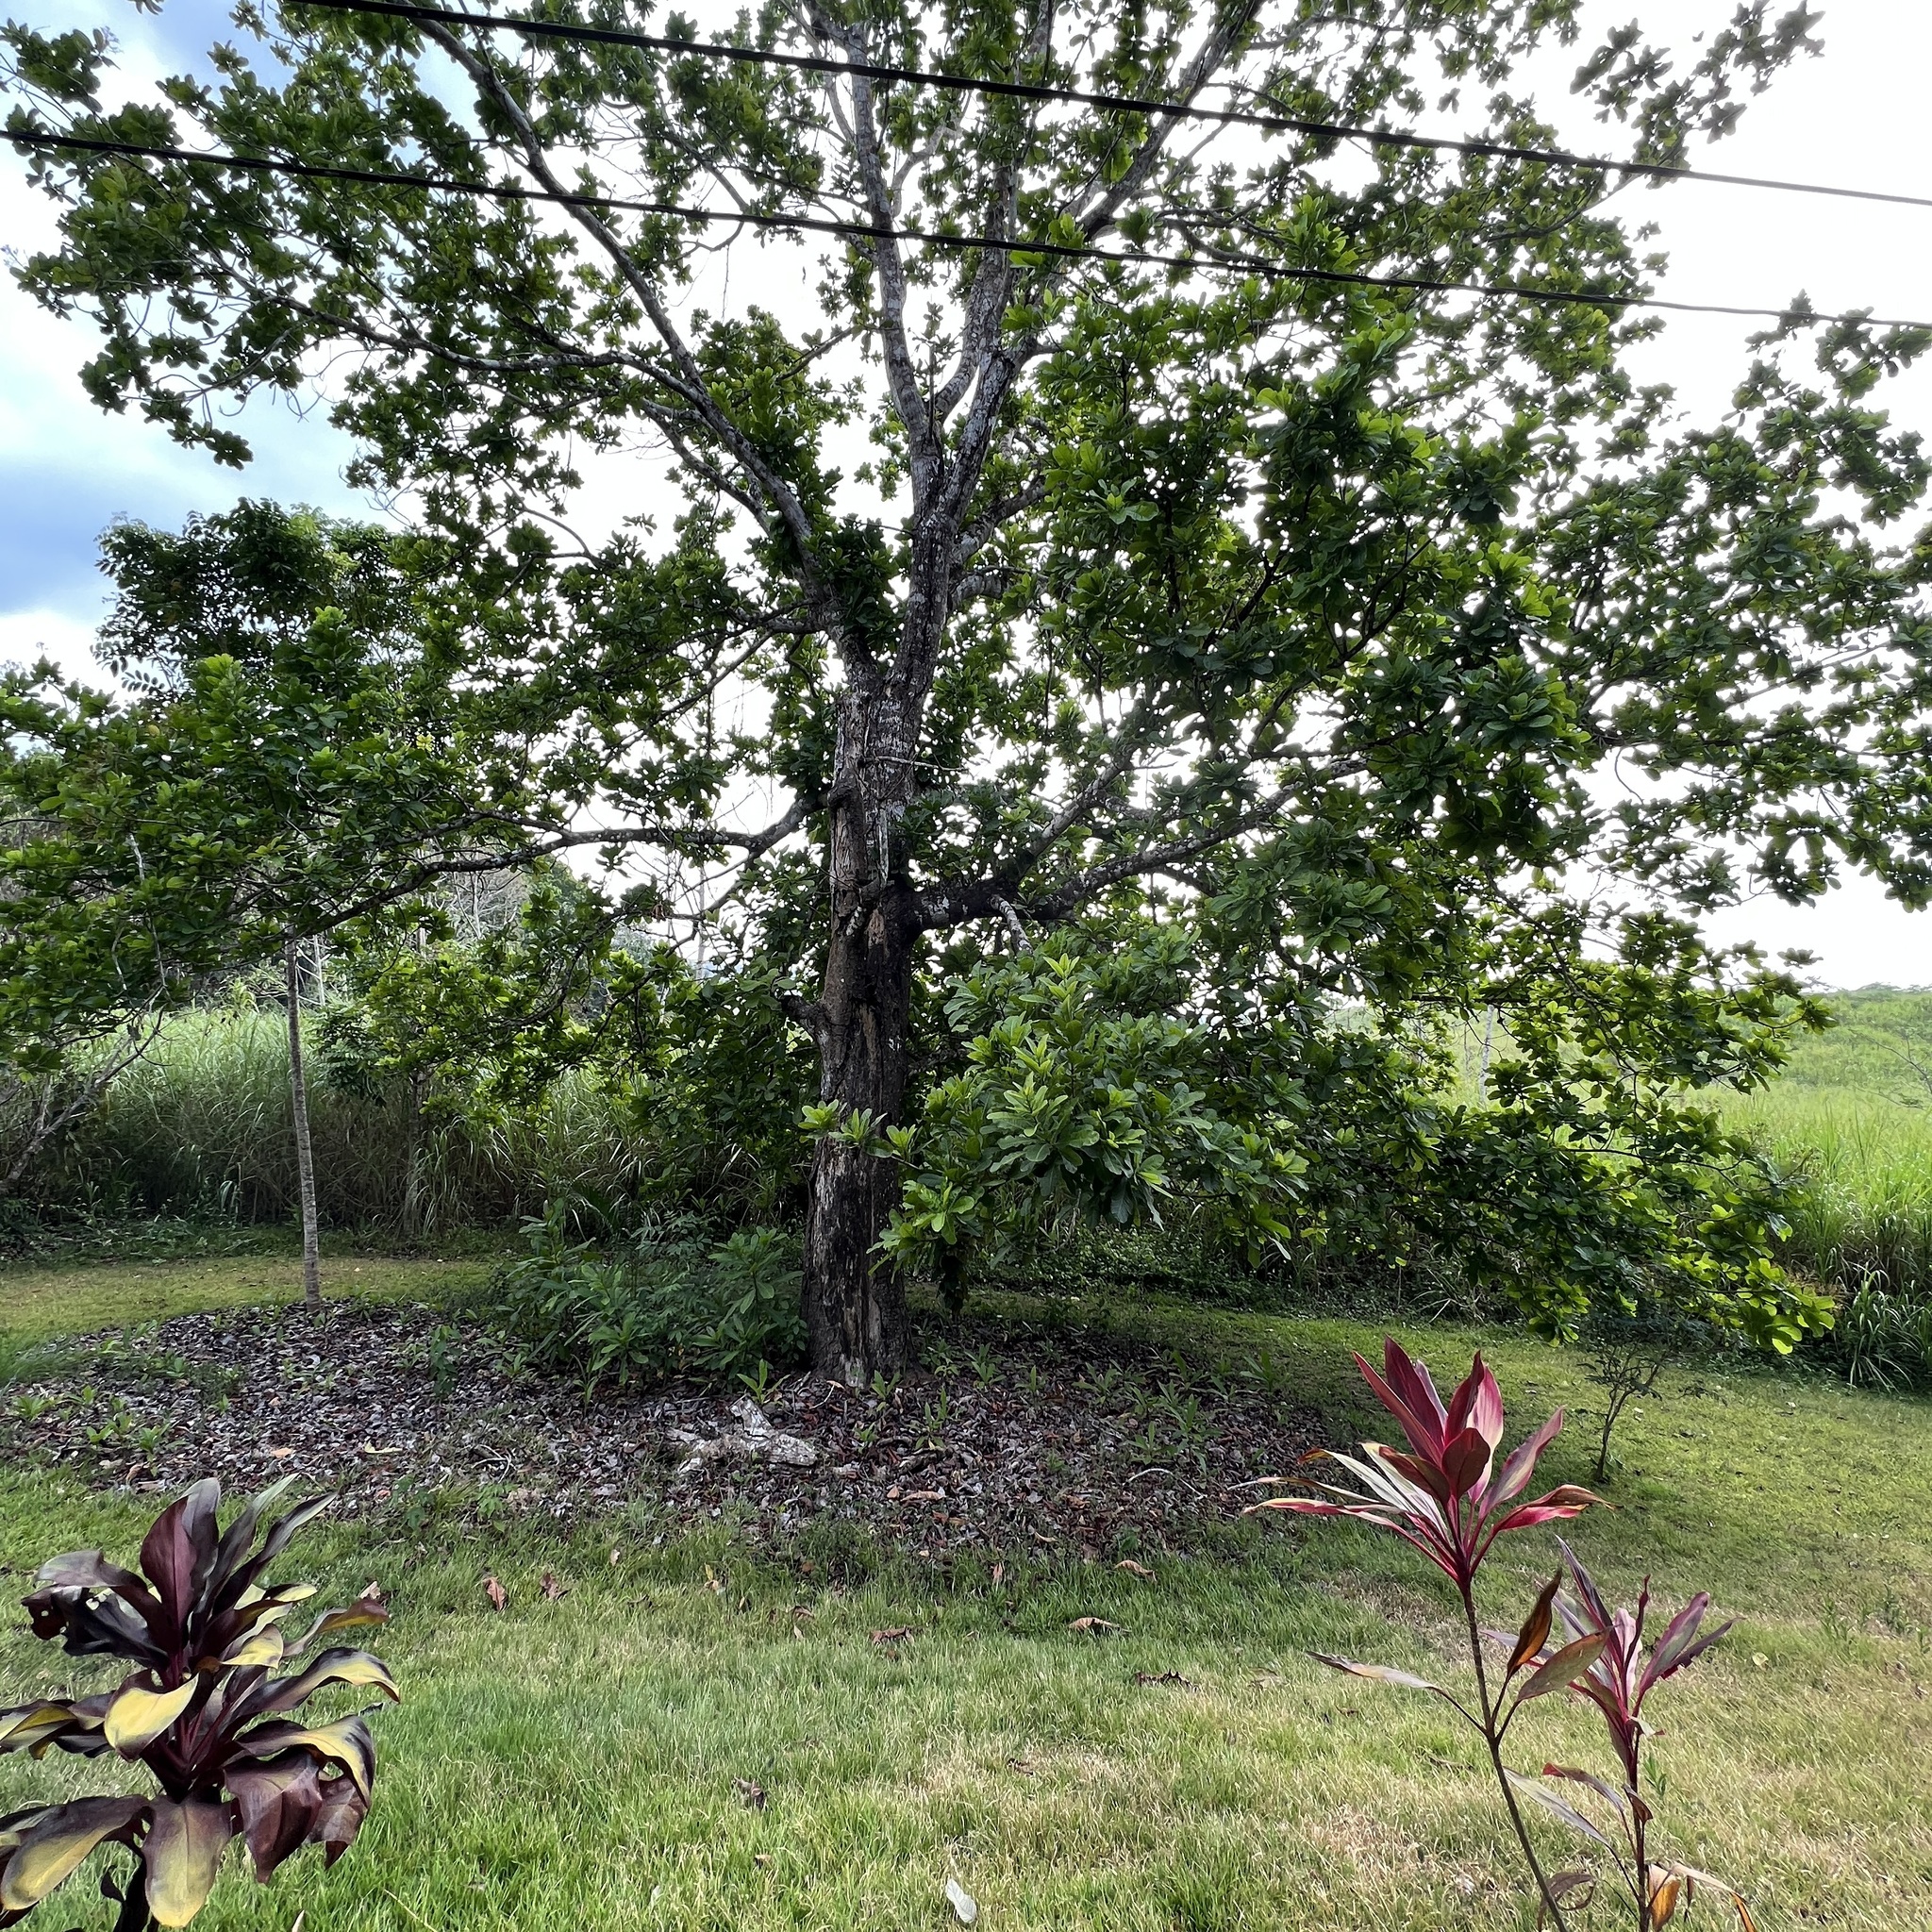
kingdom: Plantae
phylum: Tracheophyta
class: Magnoliopsida
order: Sapindales
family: Anacardiaceae
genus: Anacardium
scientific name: Anacardium excelsum
